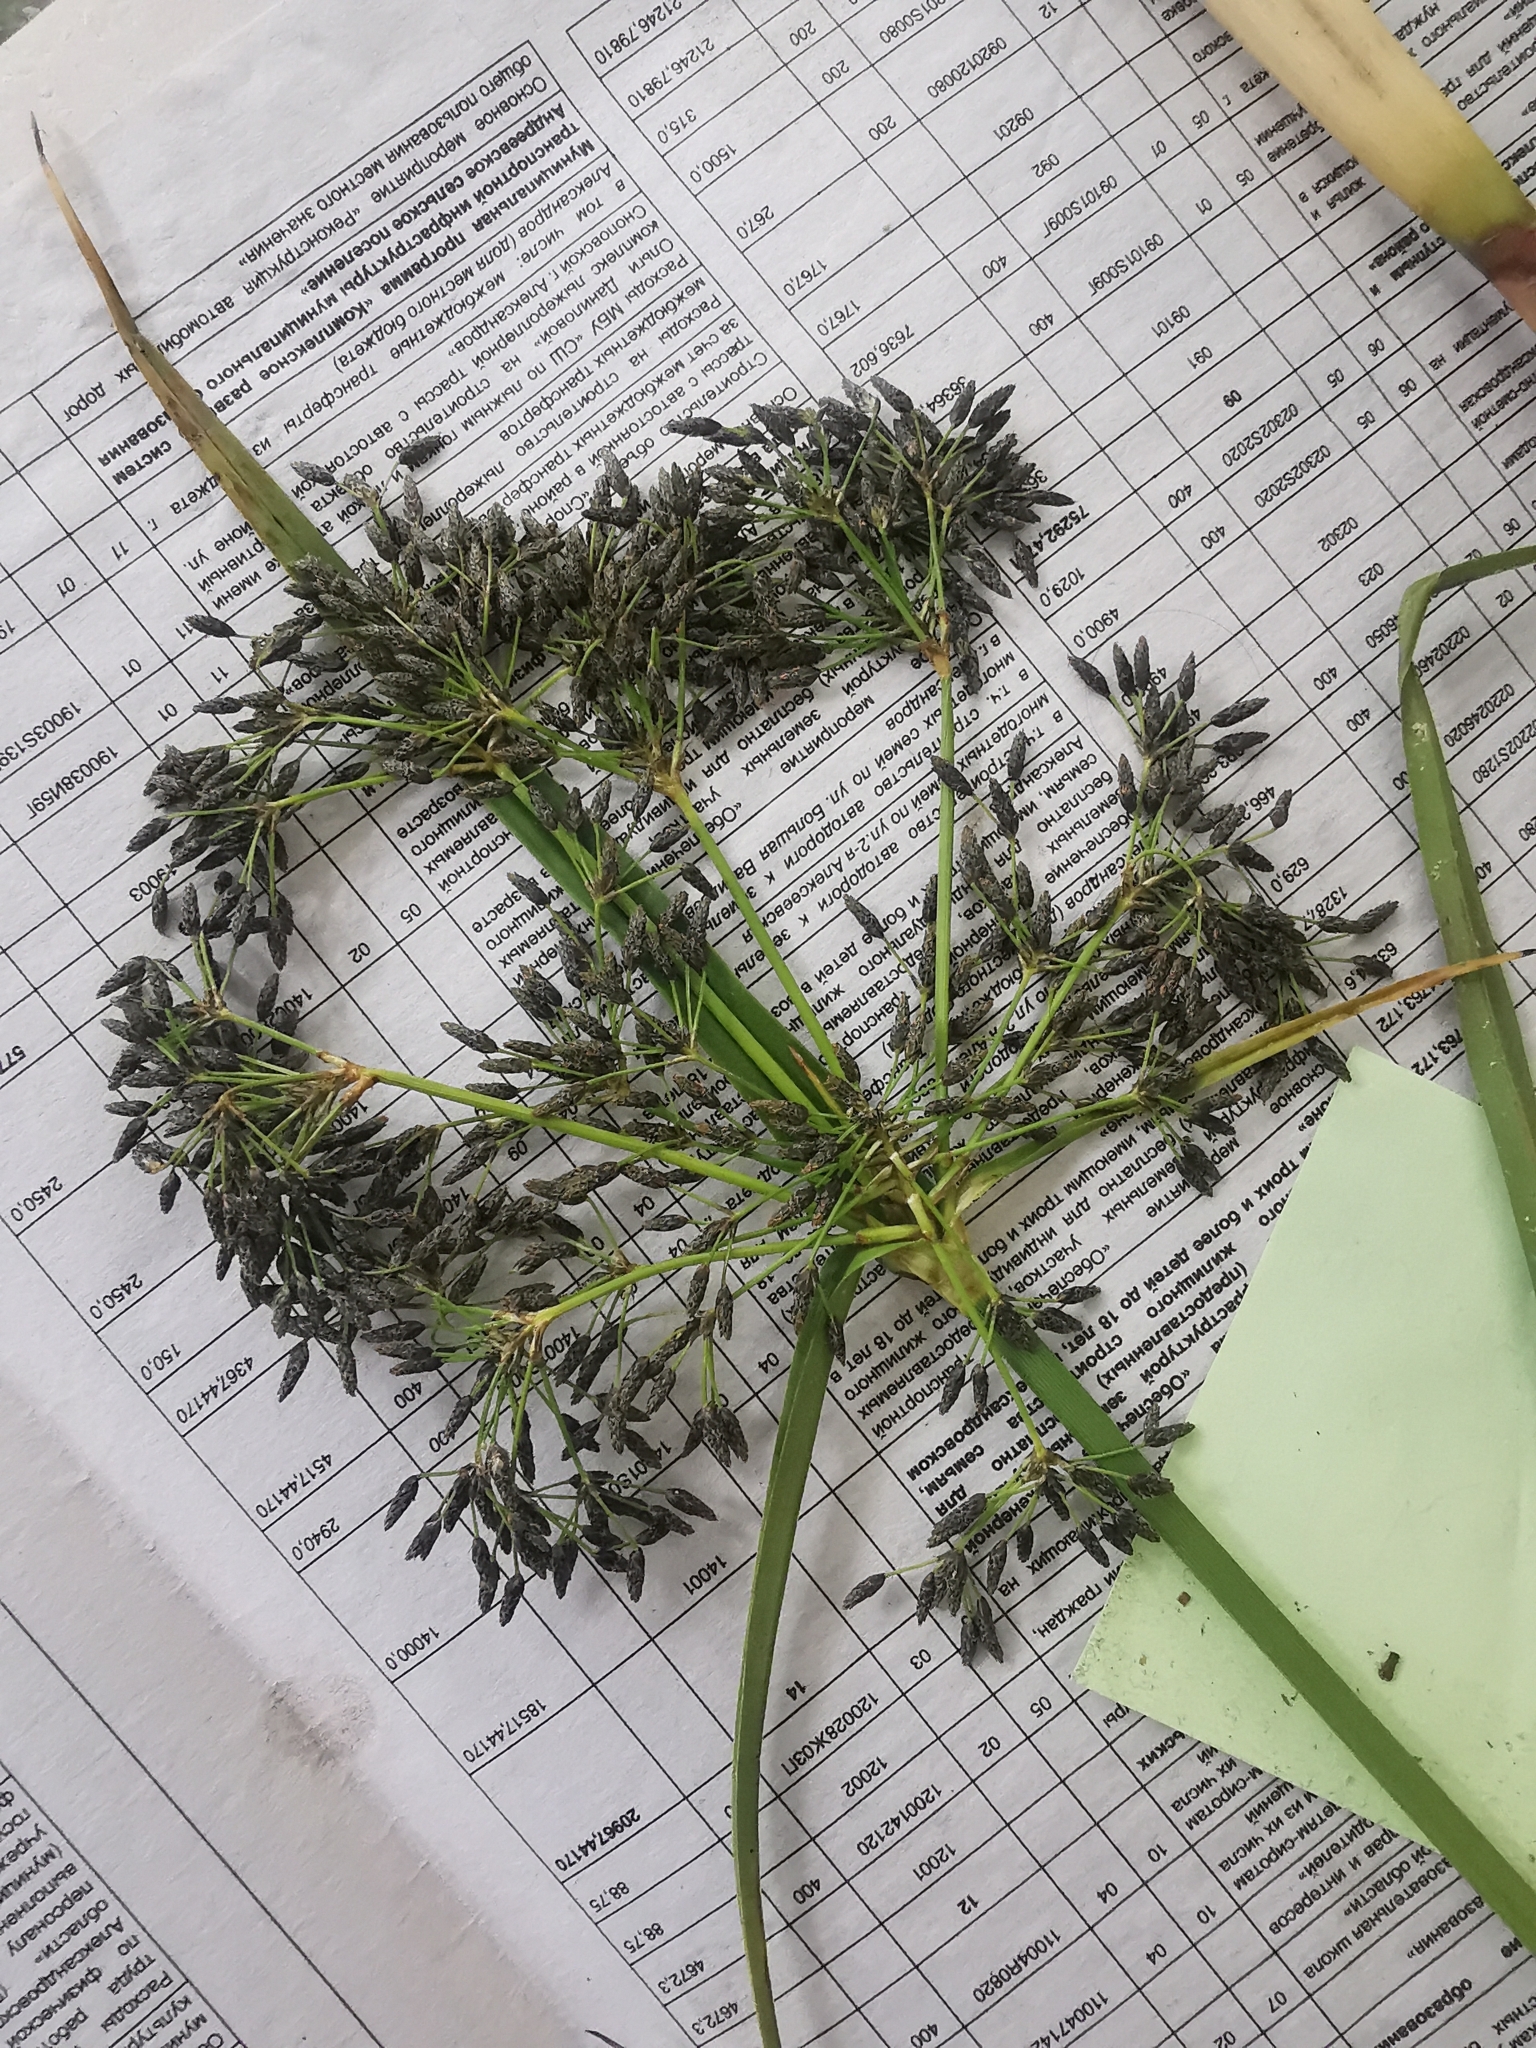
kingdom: Plantae
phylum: Tracheophyta
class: Liliopsida
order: Poales
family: Cyperaceae
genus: Scirpus
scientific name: Scirpus radicans
